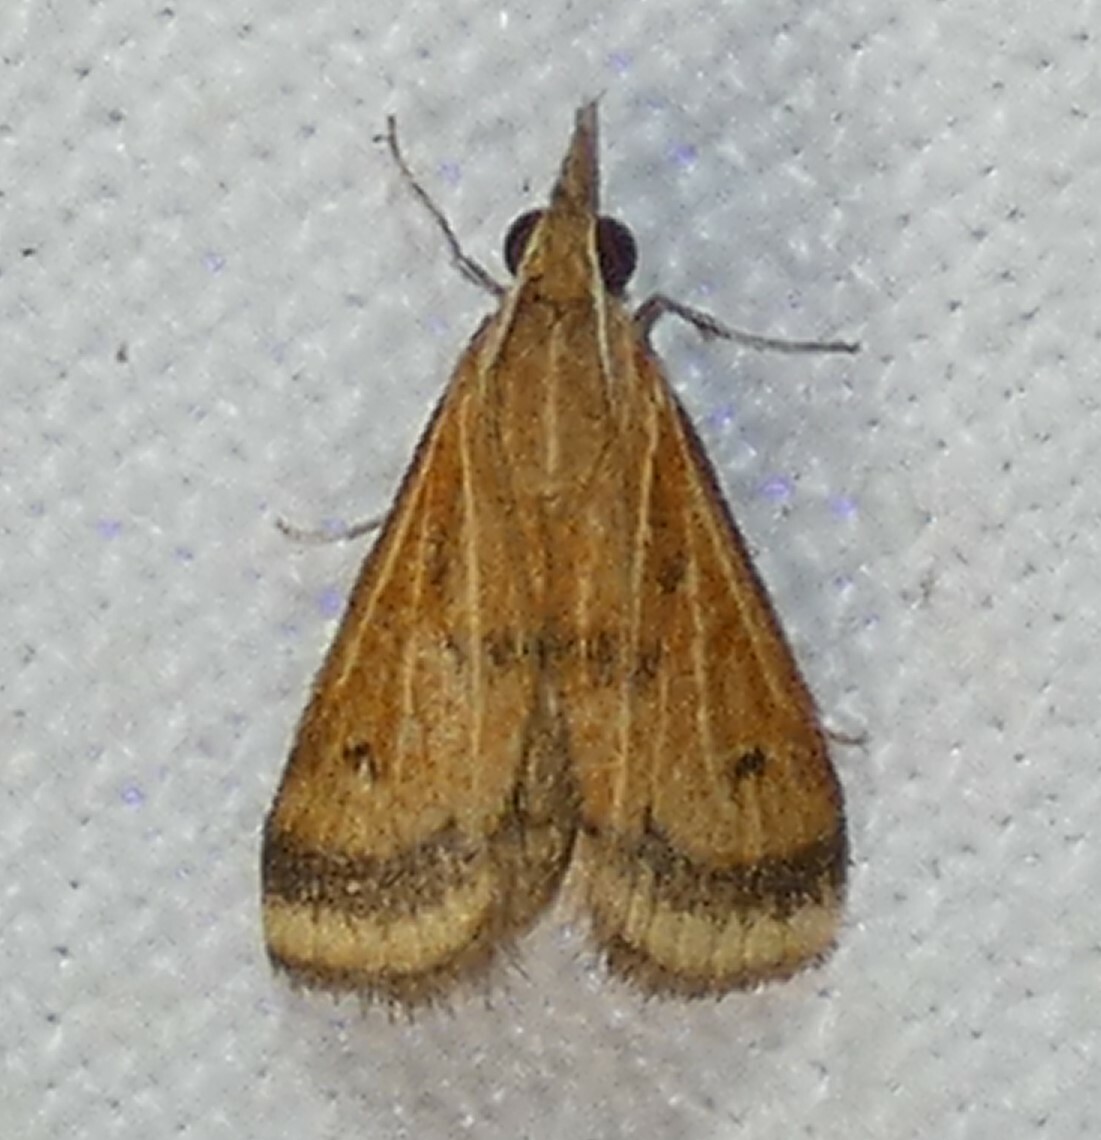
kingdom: Animalia
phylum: Arthropoda
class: Insecta
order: Lepidoptera
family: Crambidae
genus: Microtheoris
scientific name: Microtheoris ophionalis
